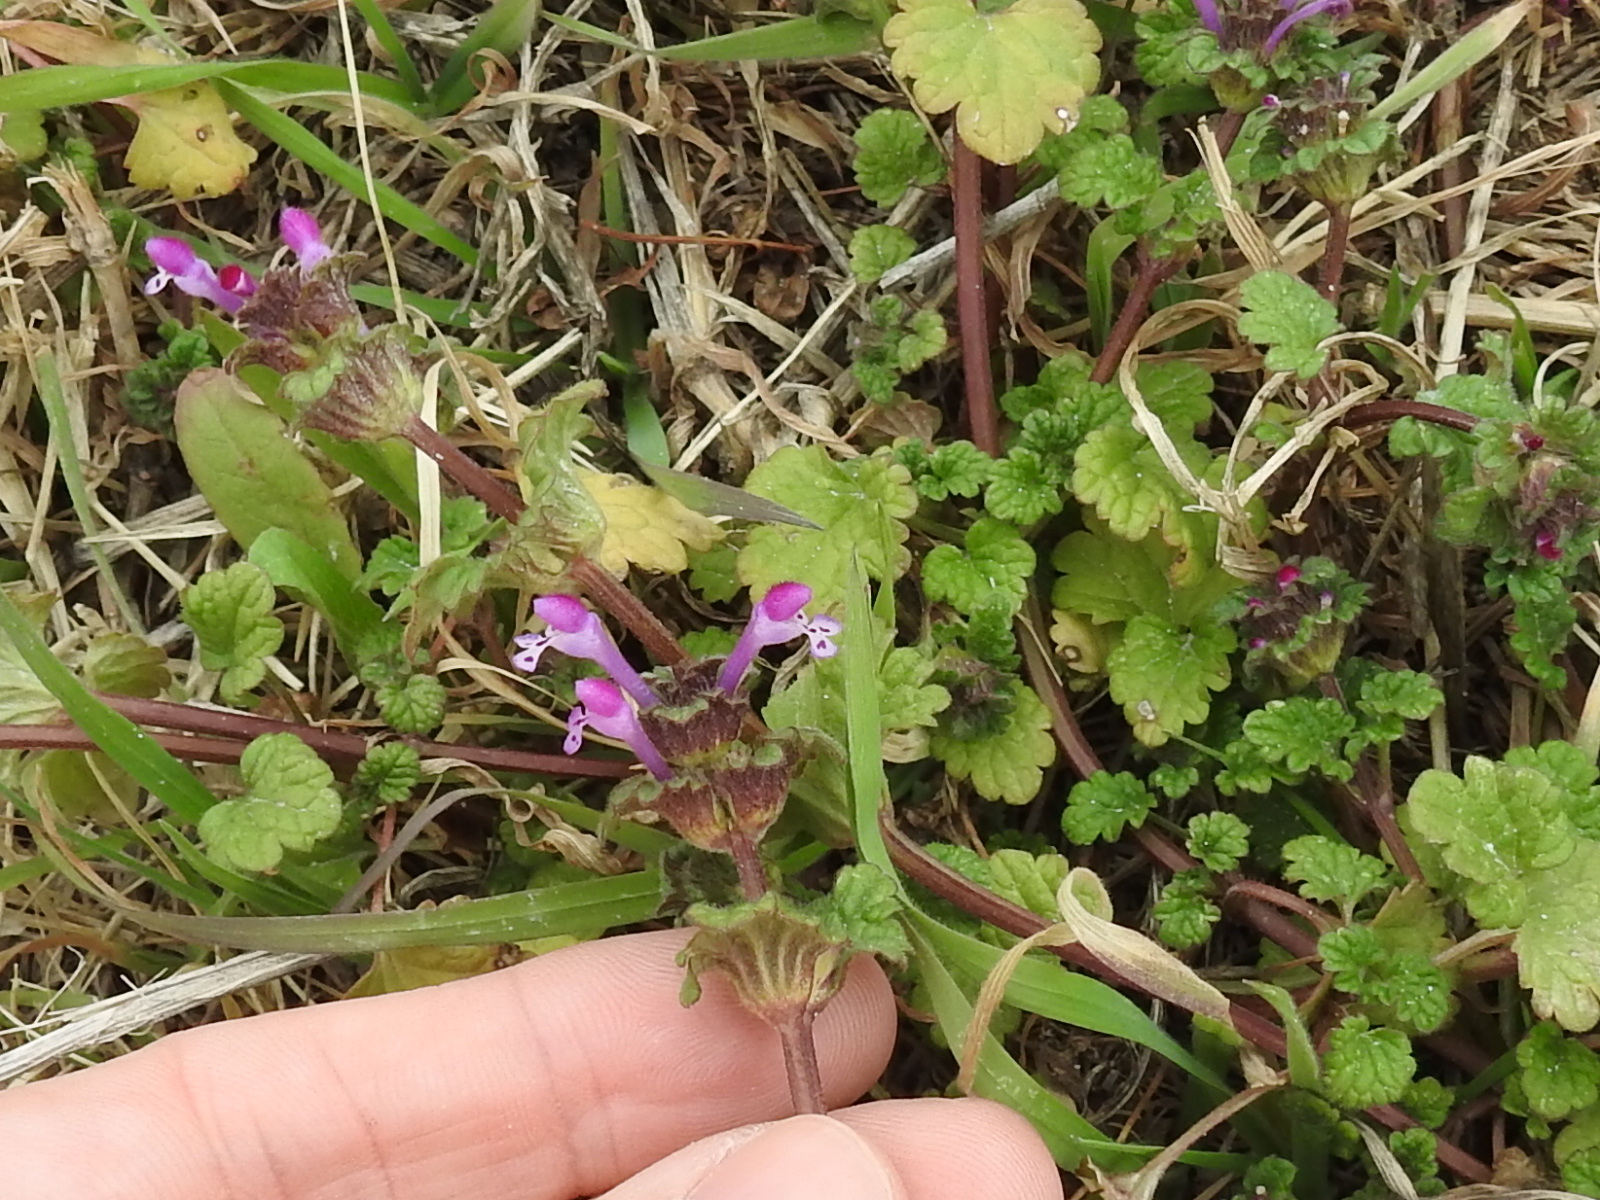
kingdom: Plantae
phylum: Tracheophyta
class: Magnoliopsida
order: Lamiales
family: Lamiaceae
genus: Lamium
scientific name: Lamium amplexicaule
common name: Henbit dead-nettle
